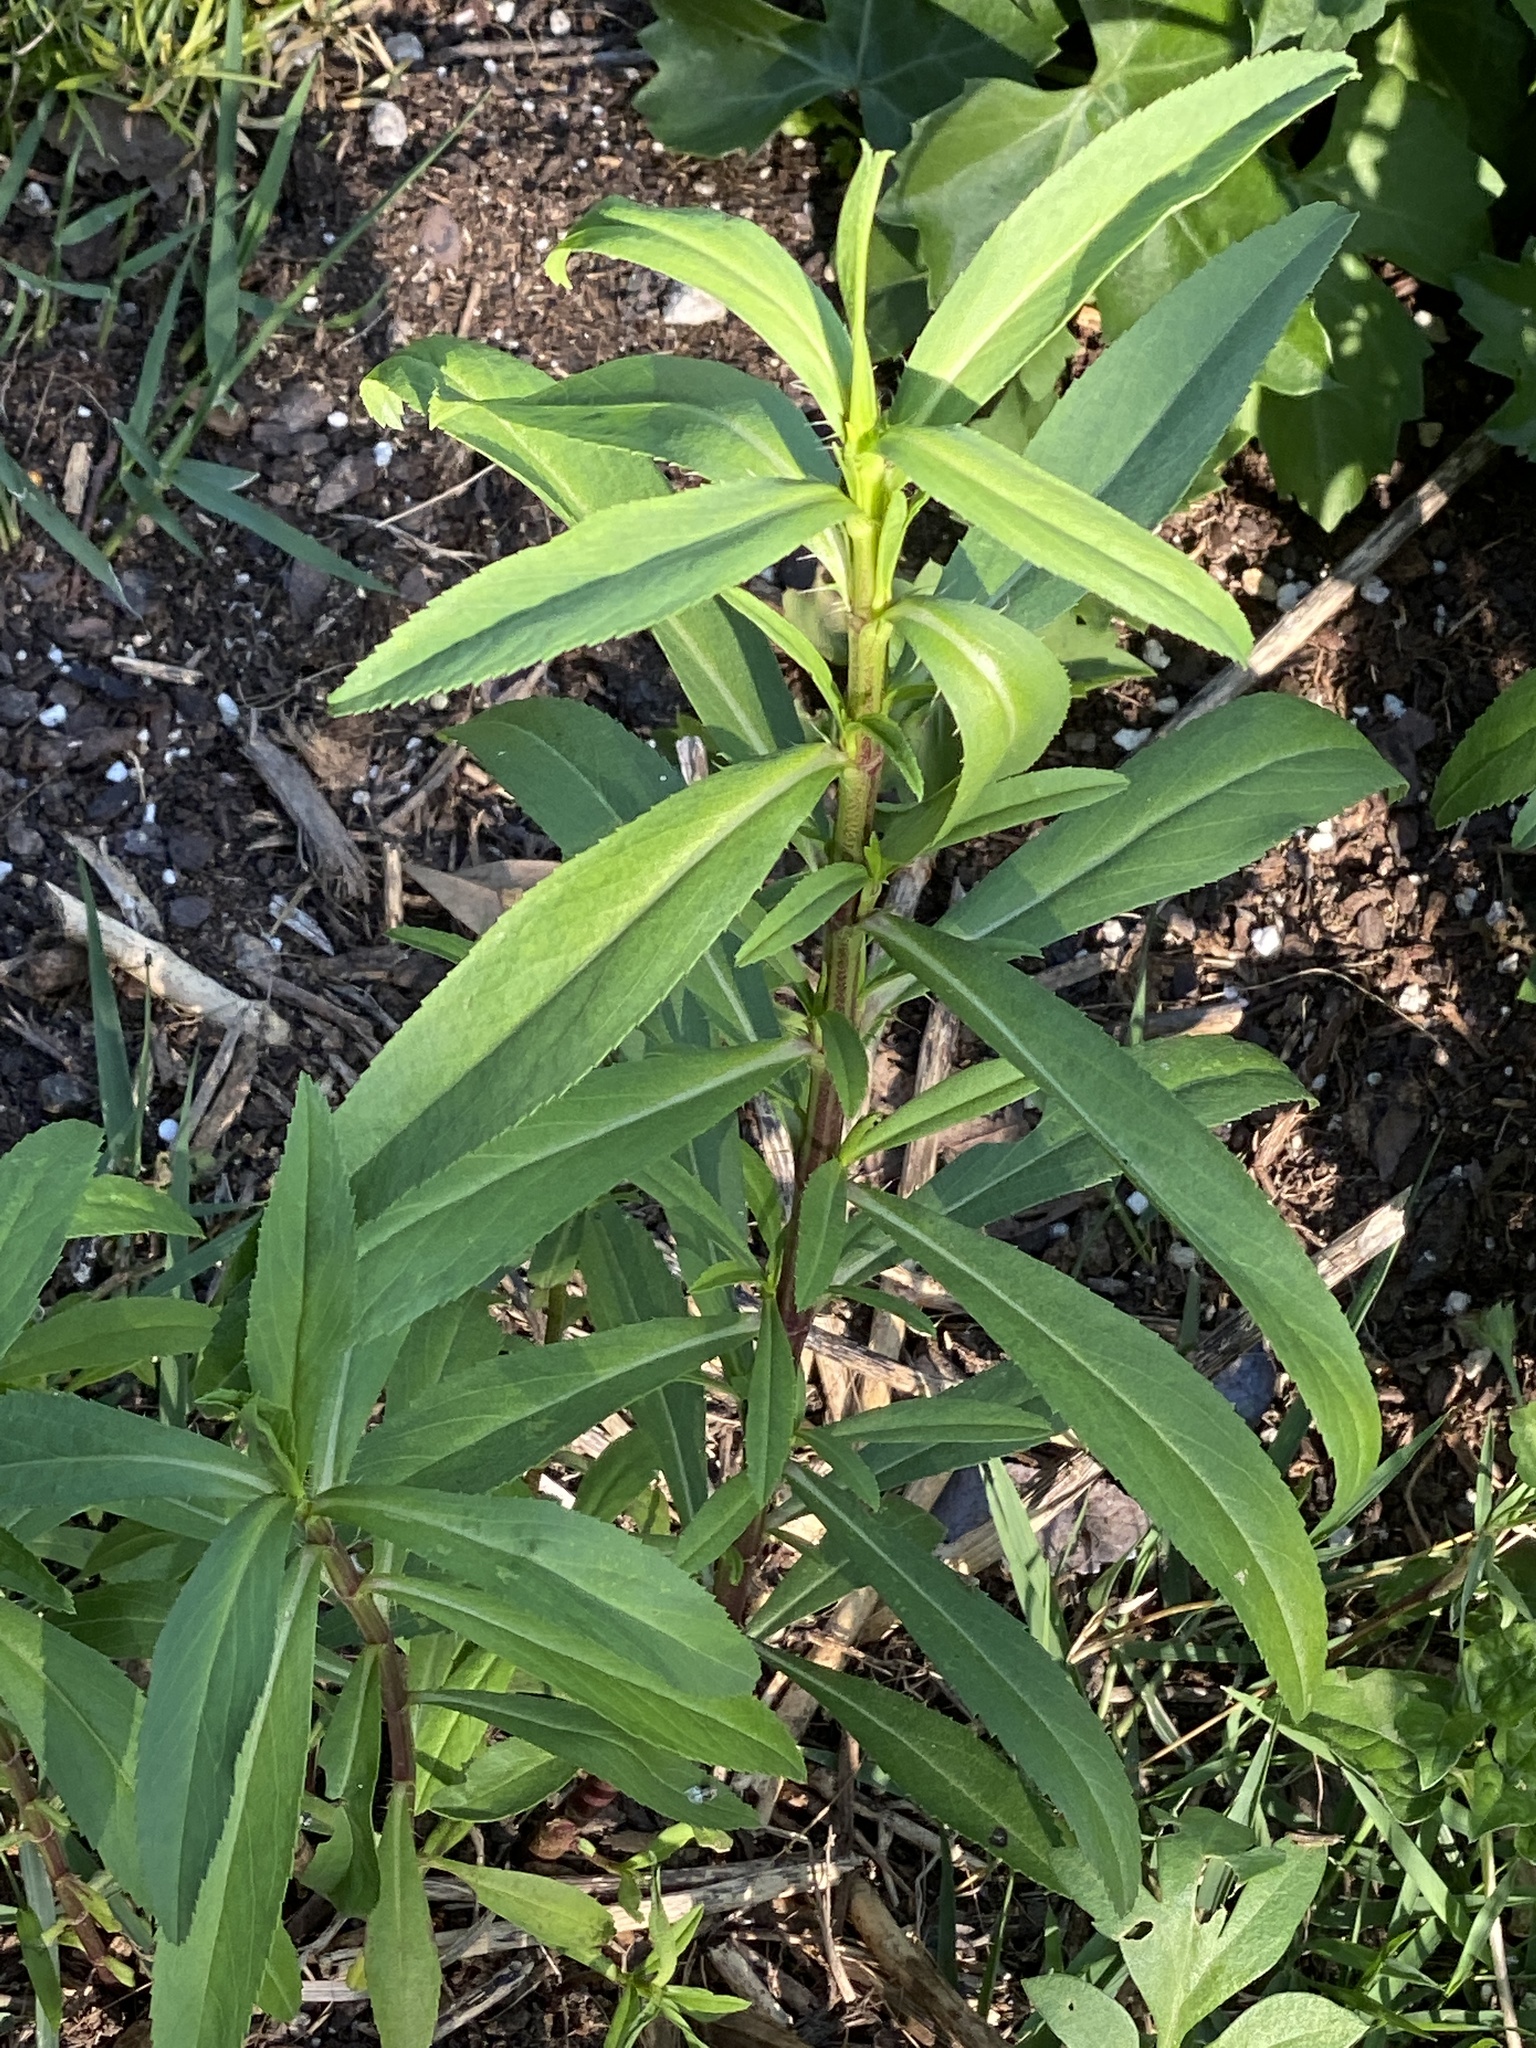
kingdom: Plantae
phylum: Tracheophyta
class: Magnoliopsida
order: Asterales
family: Asteraceae
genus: Tagetes
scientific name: Tagetes lucida
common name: Sweetscented marigold
